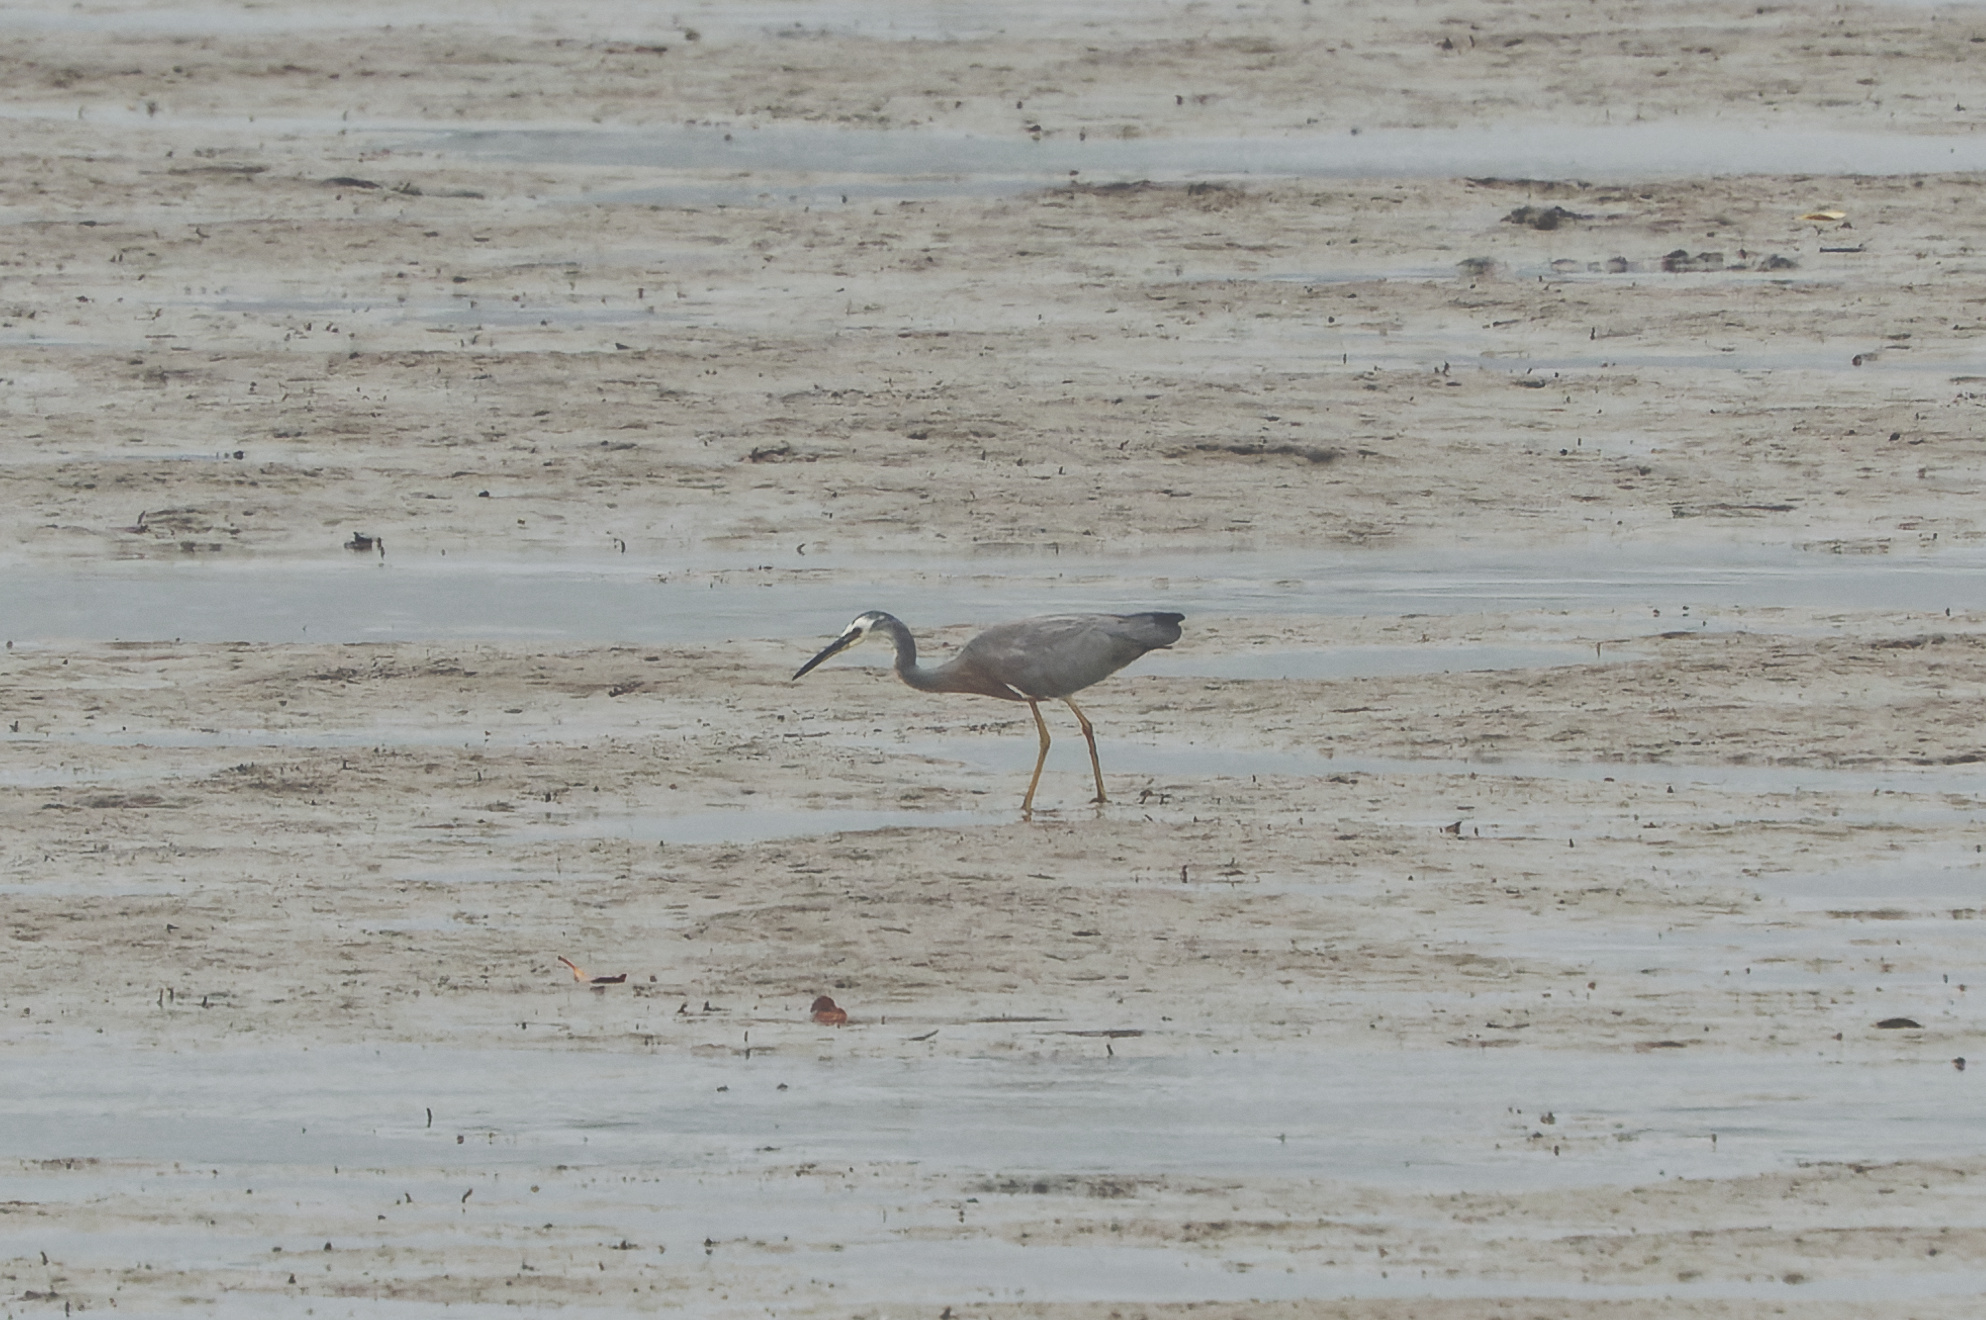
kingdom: Animalia
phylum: Chordata
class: Aves
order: Pelecaniformes
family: Ardeidae
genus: Egretta
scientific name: Egretta novaehollandiae
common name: White-faced heron
